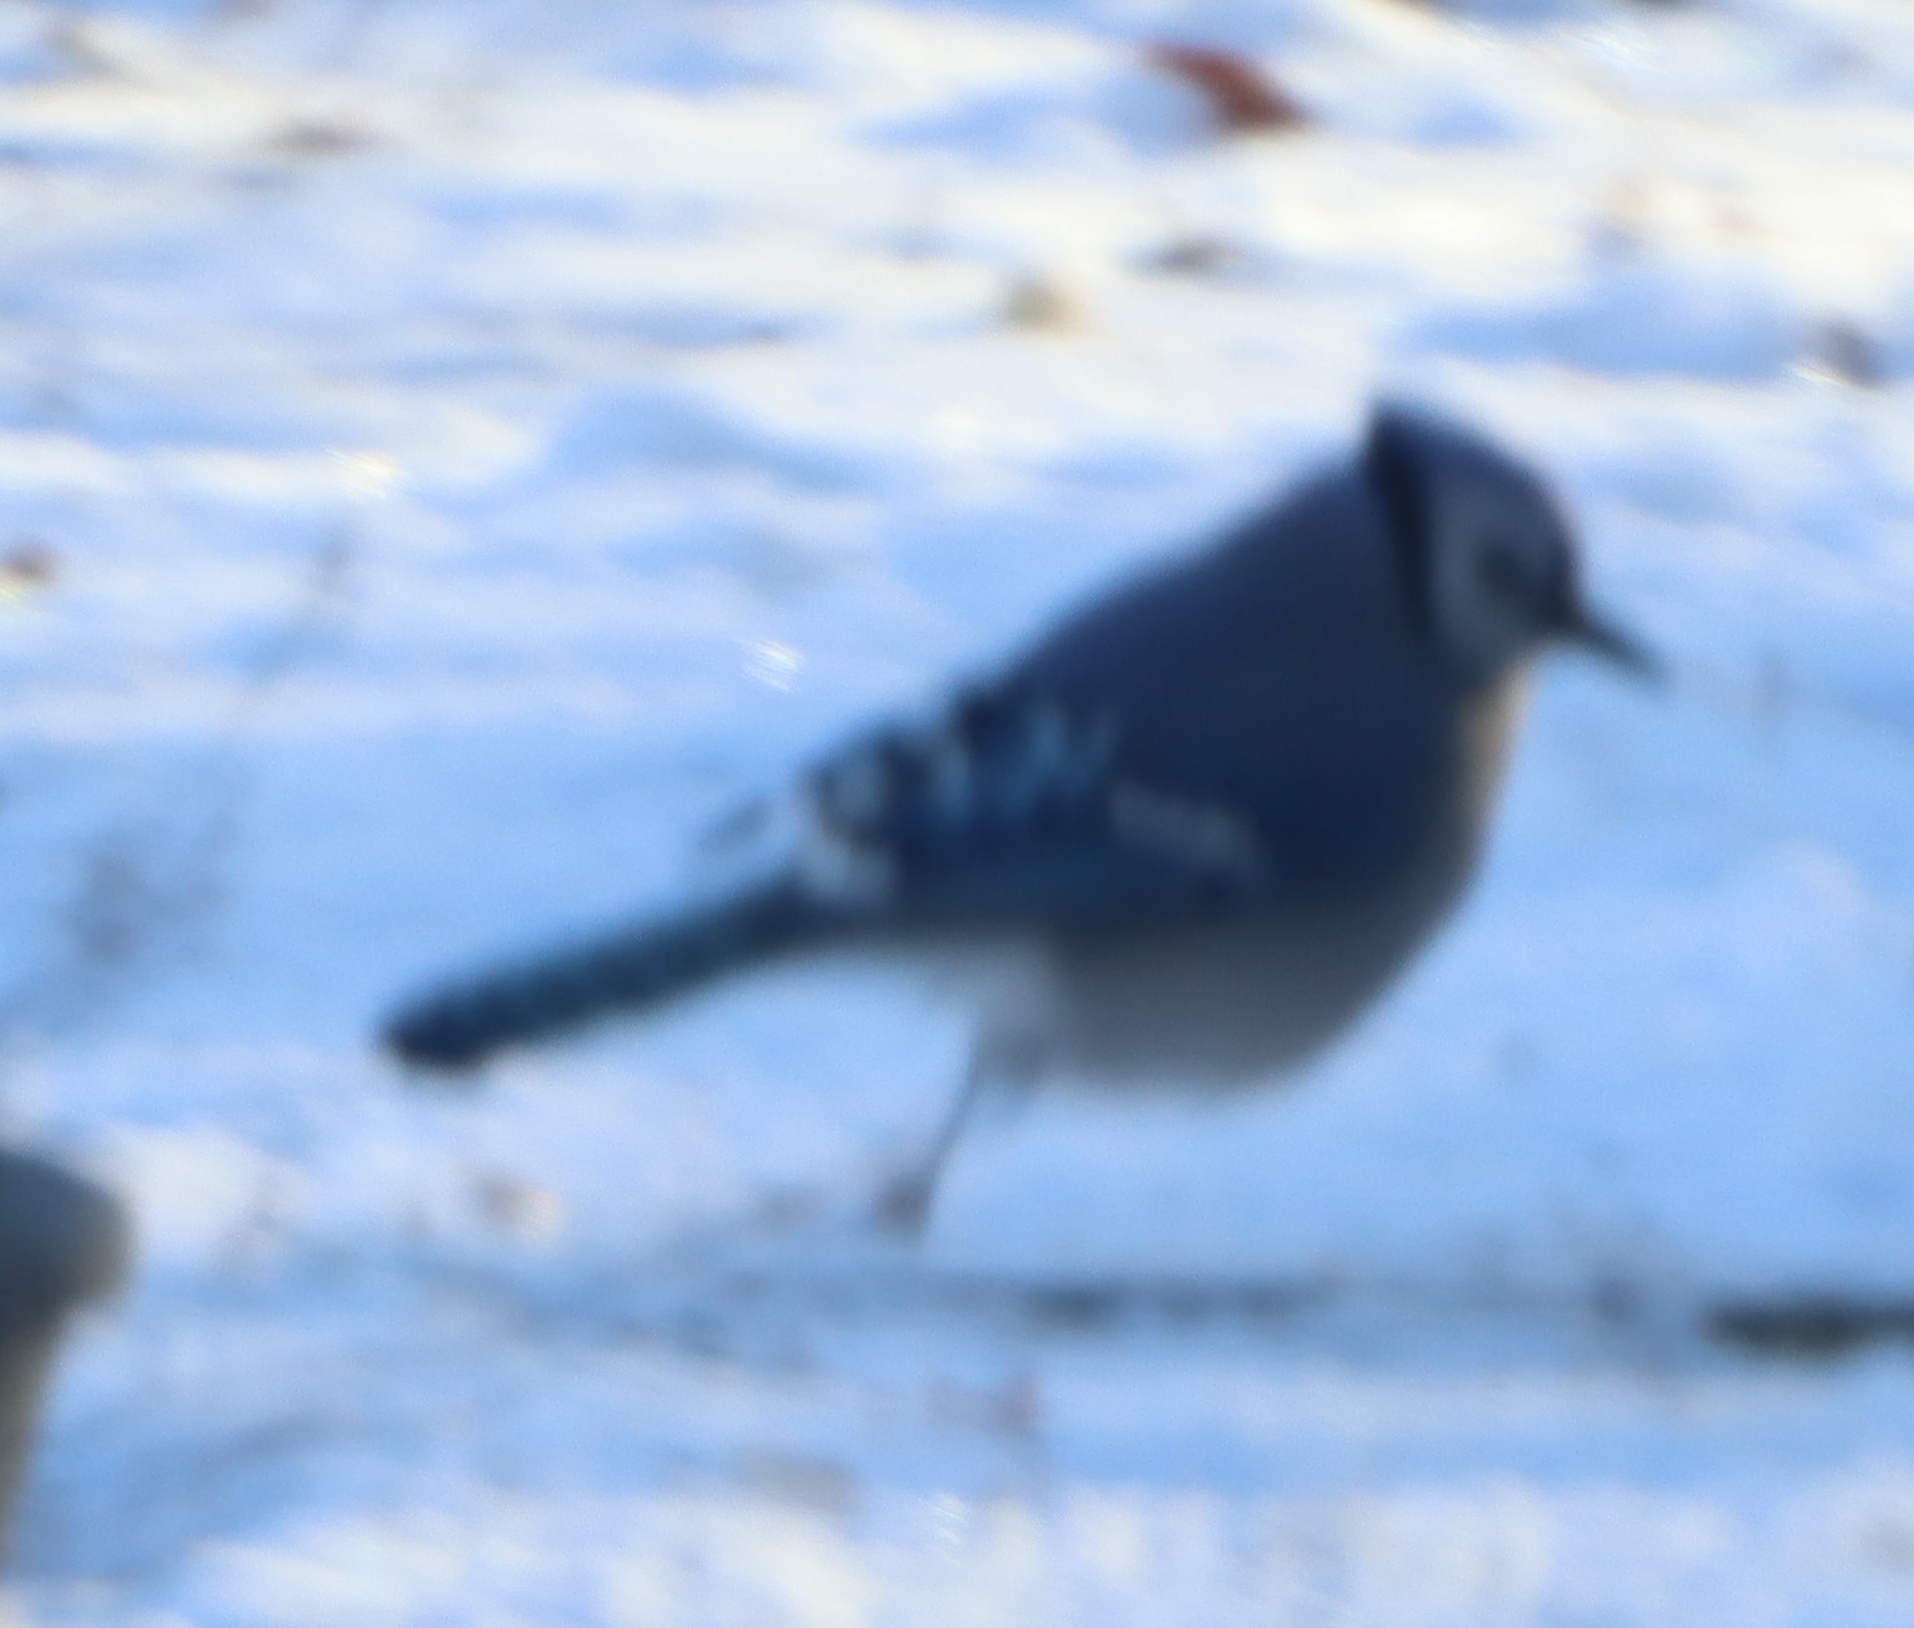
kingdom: Animalia
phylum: Chordata
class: Aves
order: Passeriformes
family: Corvidae
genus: Cyanocitta
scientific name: Cyanocitta cristata
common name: Blue jay
